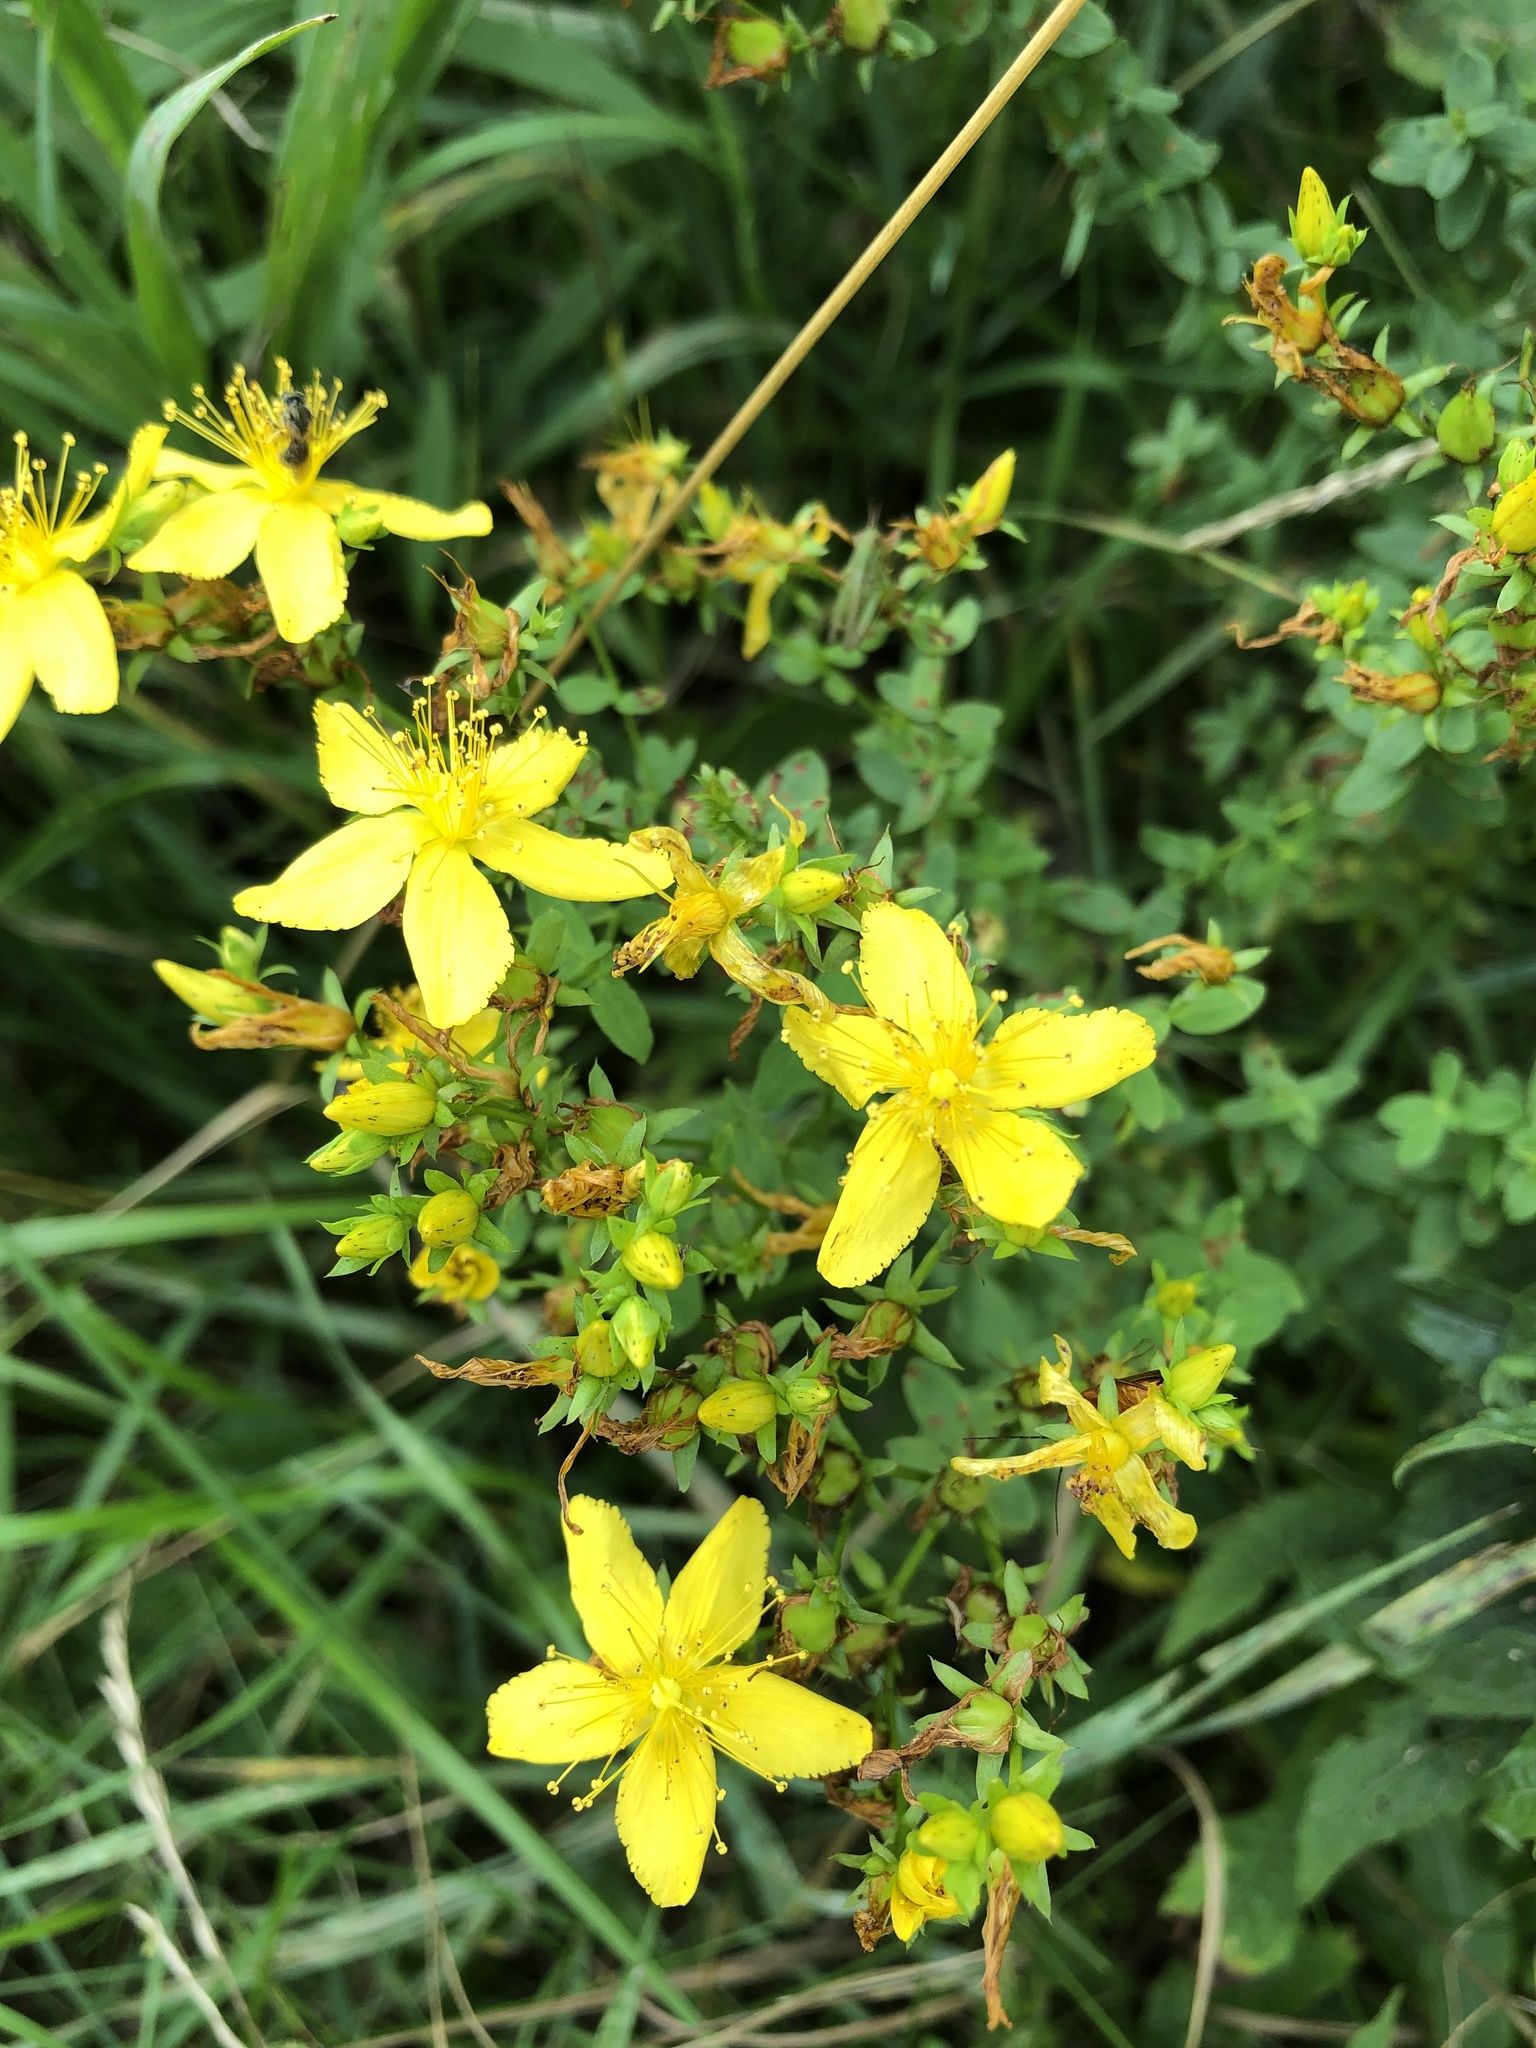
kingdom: Plantae
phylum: Tracheophyta
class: Magnoliopsida
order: Malpighiales
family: Hypericaceae
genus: Hypericum
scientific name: Hypericum perforatum
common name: Common st. johnswort
